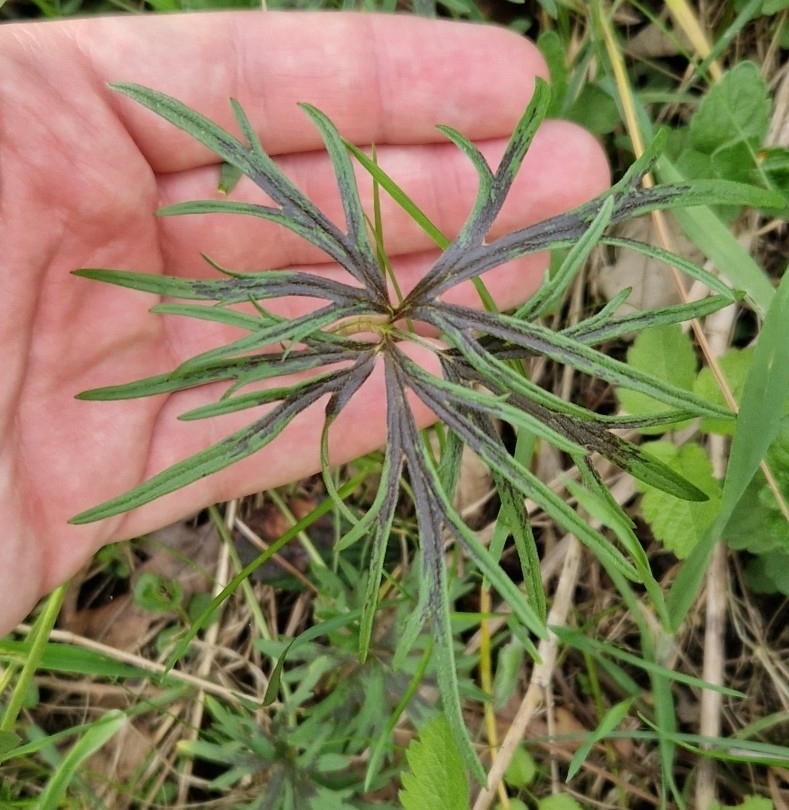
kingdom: Plantae
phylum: Tracheophyta
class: Magnoliopsida
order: Ranunculales
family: Ranunculaceae
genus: Ranunculus
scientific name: Ranunculus acris
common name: Meadow buttercup
